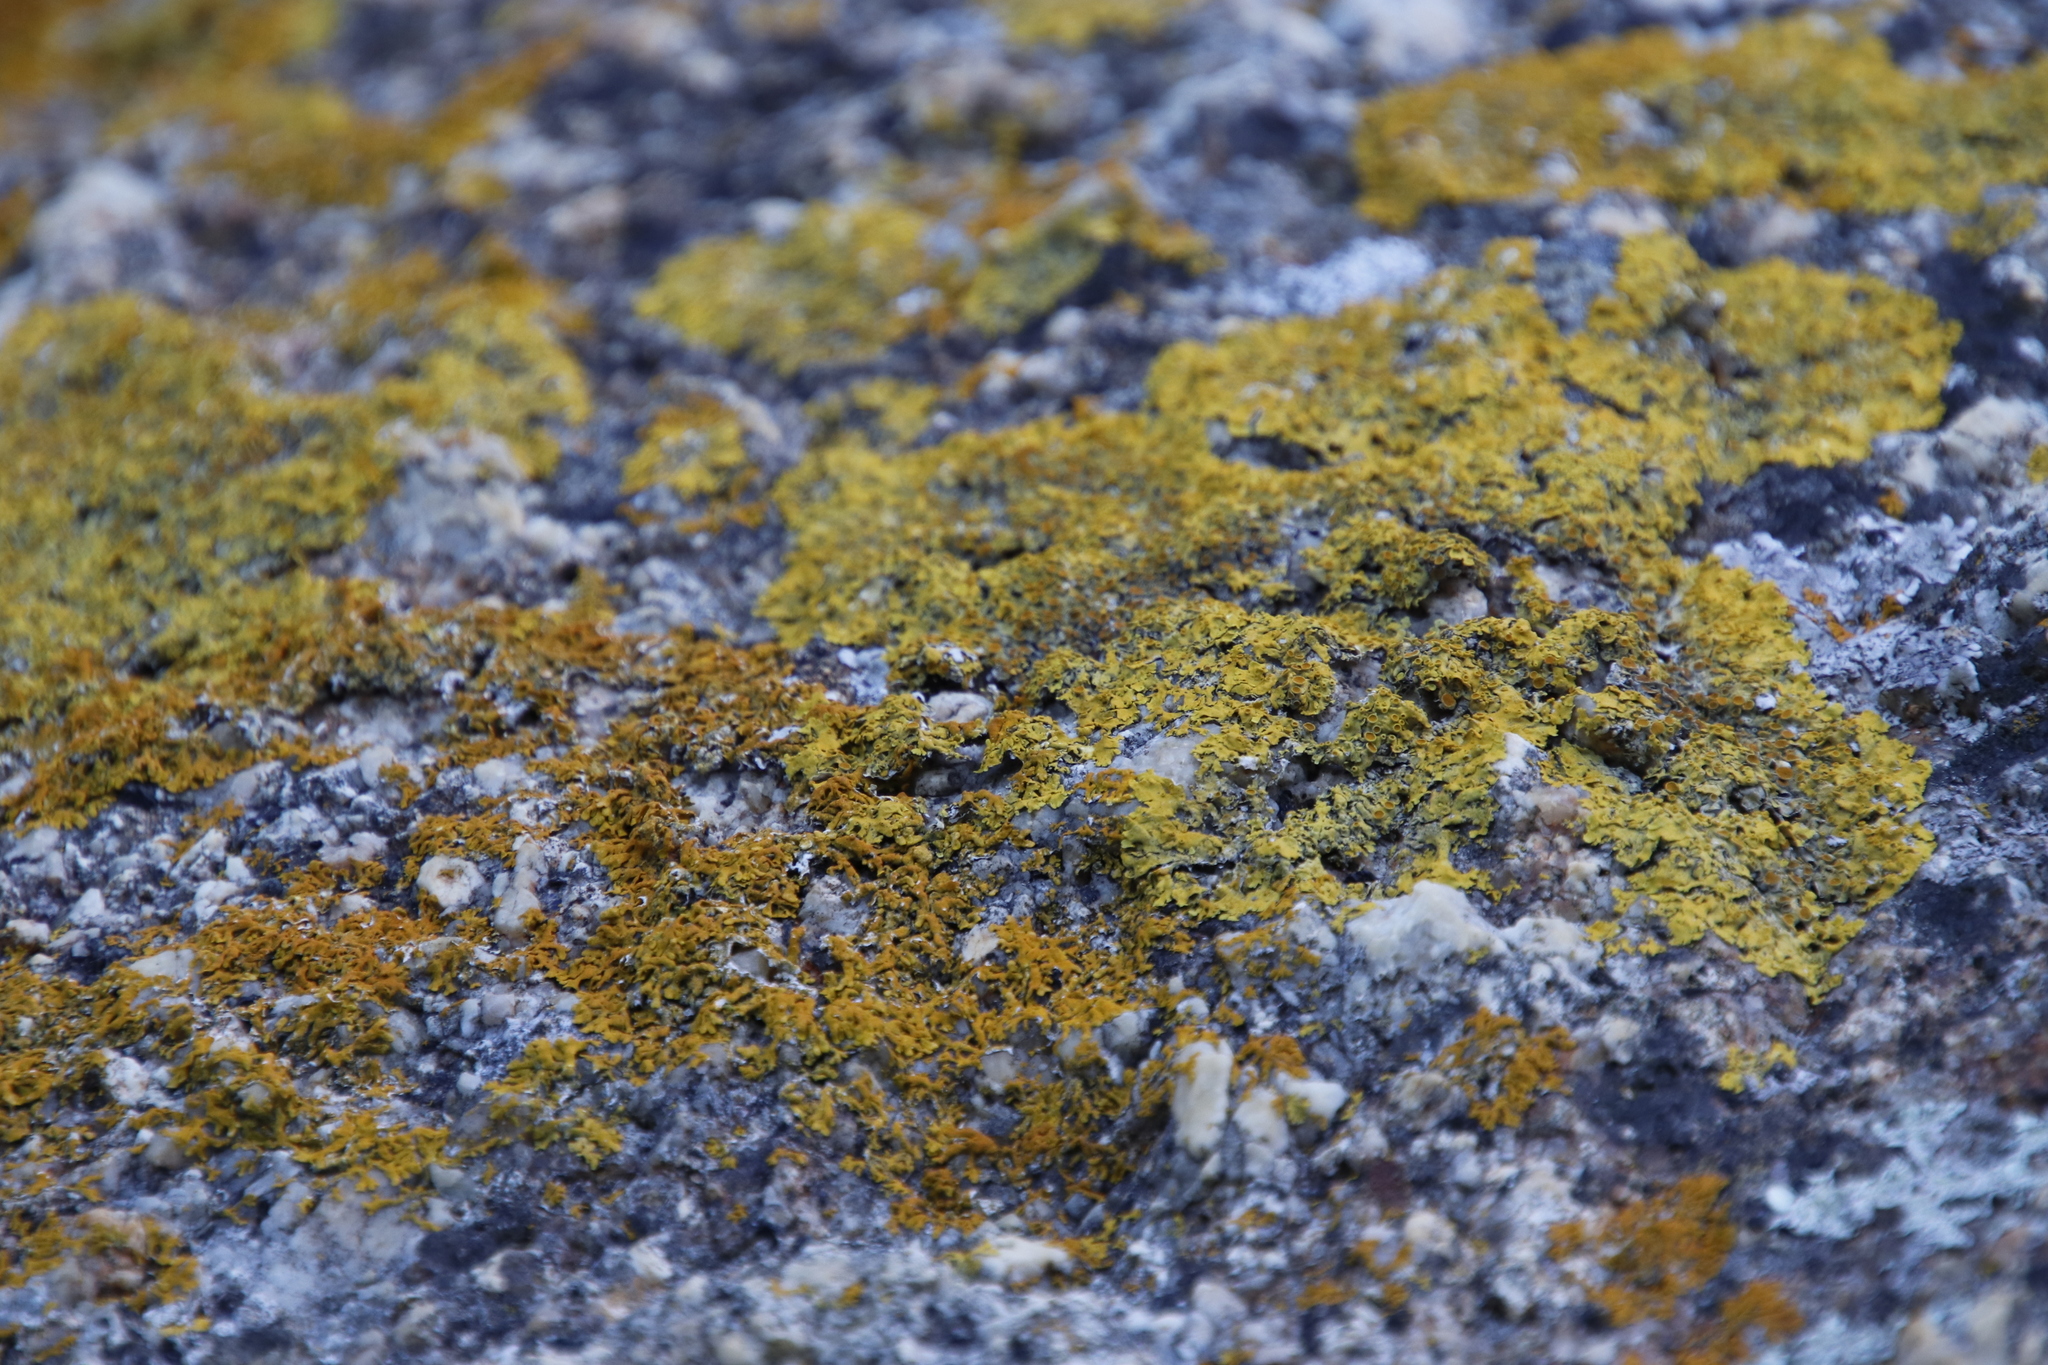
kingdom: Fungi
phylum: Ascomycota
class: Lecanoromycetes
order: Teloschistales
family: Teloschistaceae
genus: Xanthoria
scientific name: Xanthoria parietina
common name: Common orange lichen
